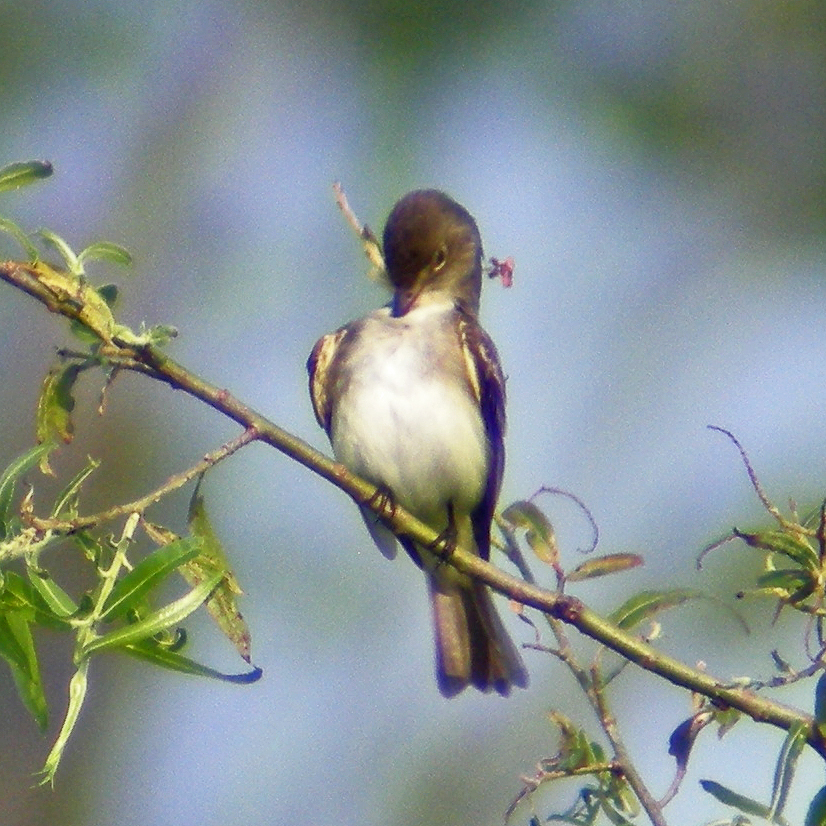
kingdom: Animalia
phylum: Chordata
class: Aves
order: Passeriformes
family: Tyrannidae
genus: Empidonax
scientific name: Empidonax traillii
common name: Willow flycatcher
